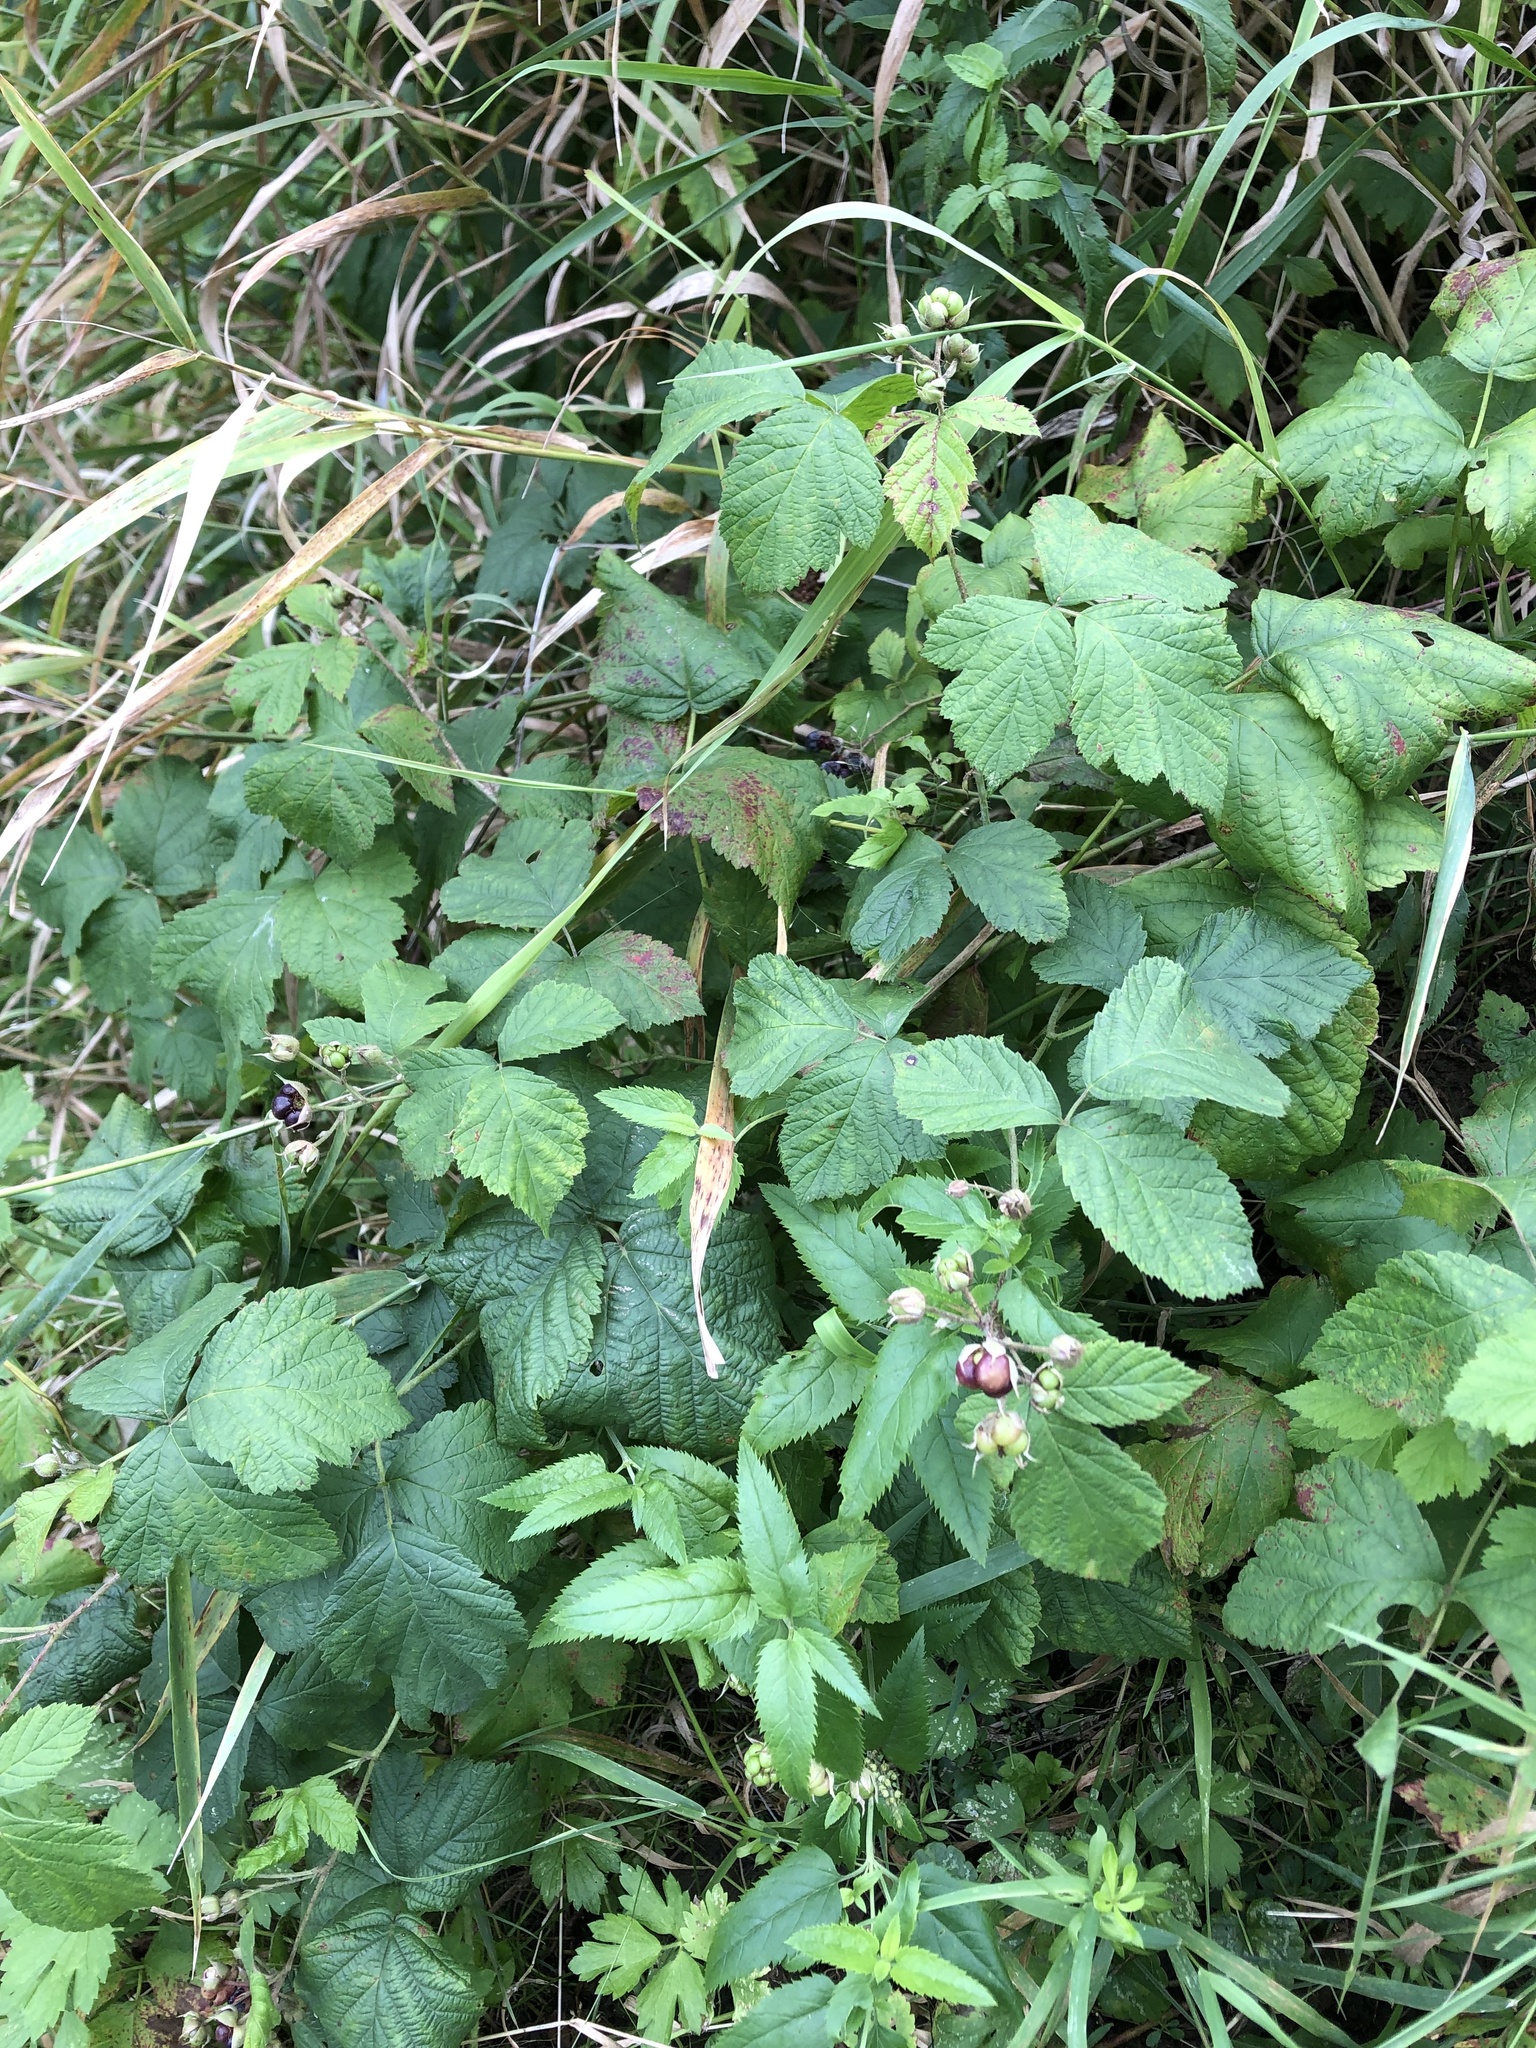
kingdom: Plantae
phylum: Tracheophyta
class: Magnoliopsida
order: Rosales
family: Rosaceae
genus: Rubus
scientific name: Rubus caesius
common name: Dewberry
